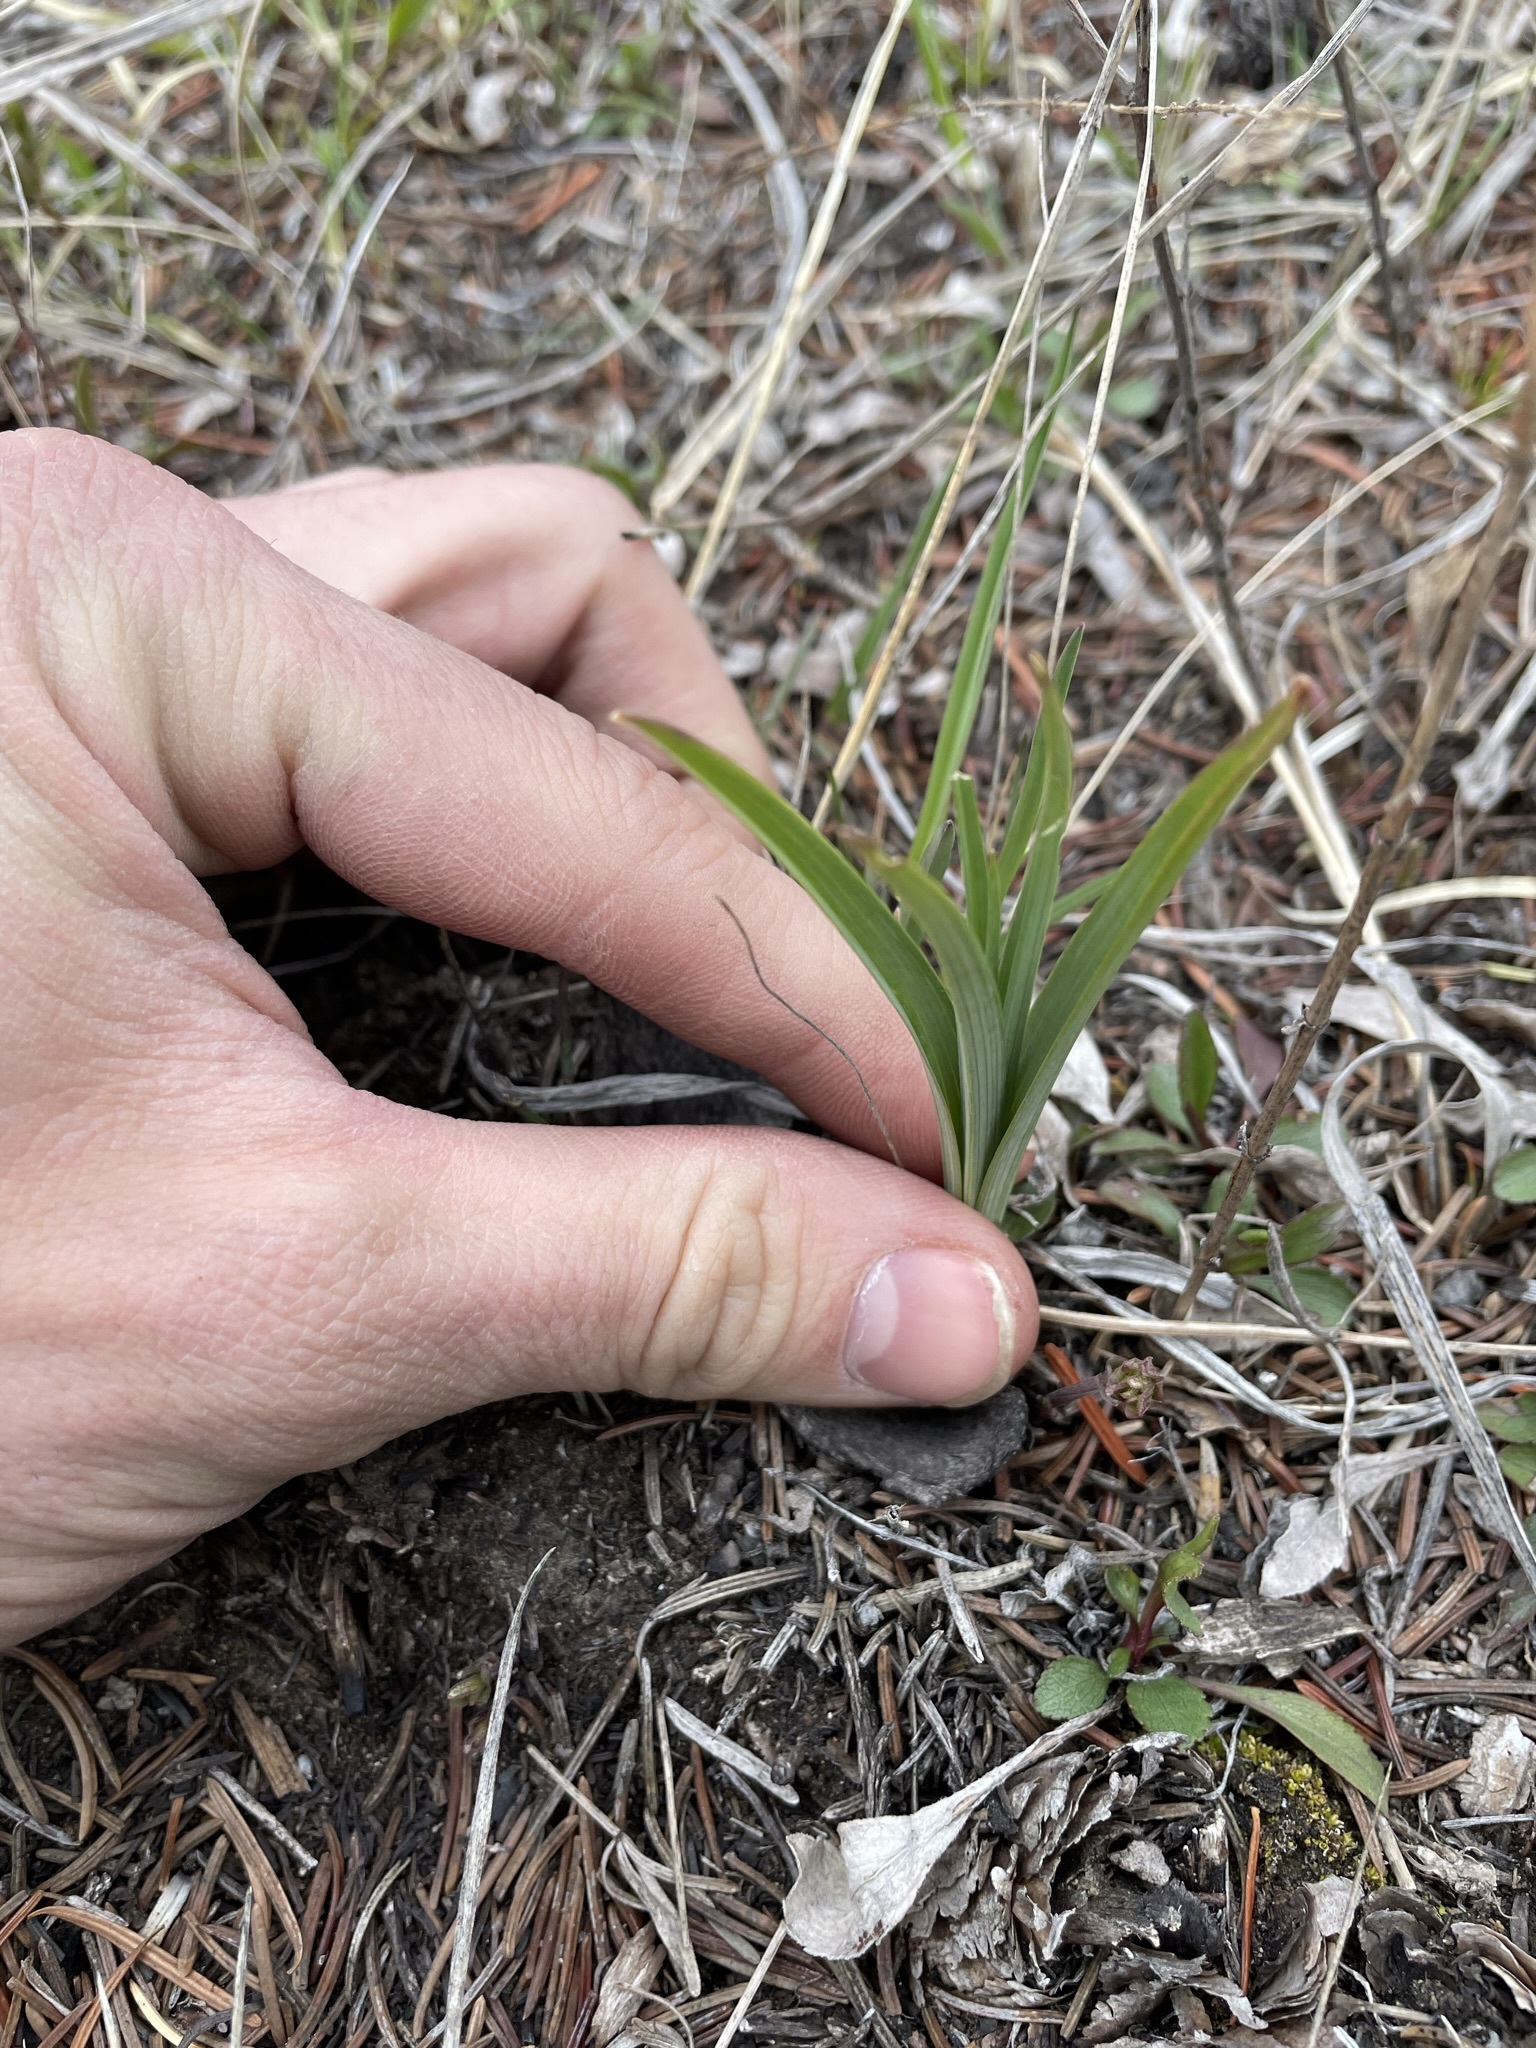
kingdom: Plantae
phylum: Tracheophyta
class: Liliopsida
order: Liliales
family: Melanthiaceae
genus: Anticlea
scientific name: Anticlea elegans
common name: Mountain death camas
